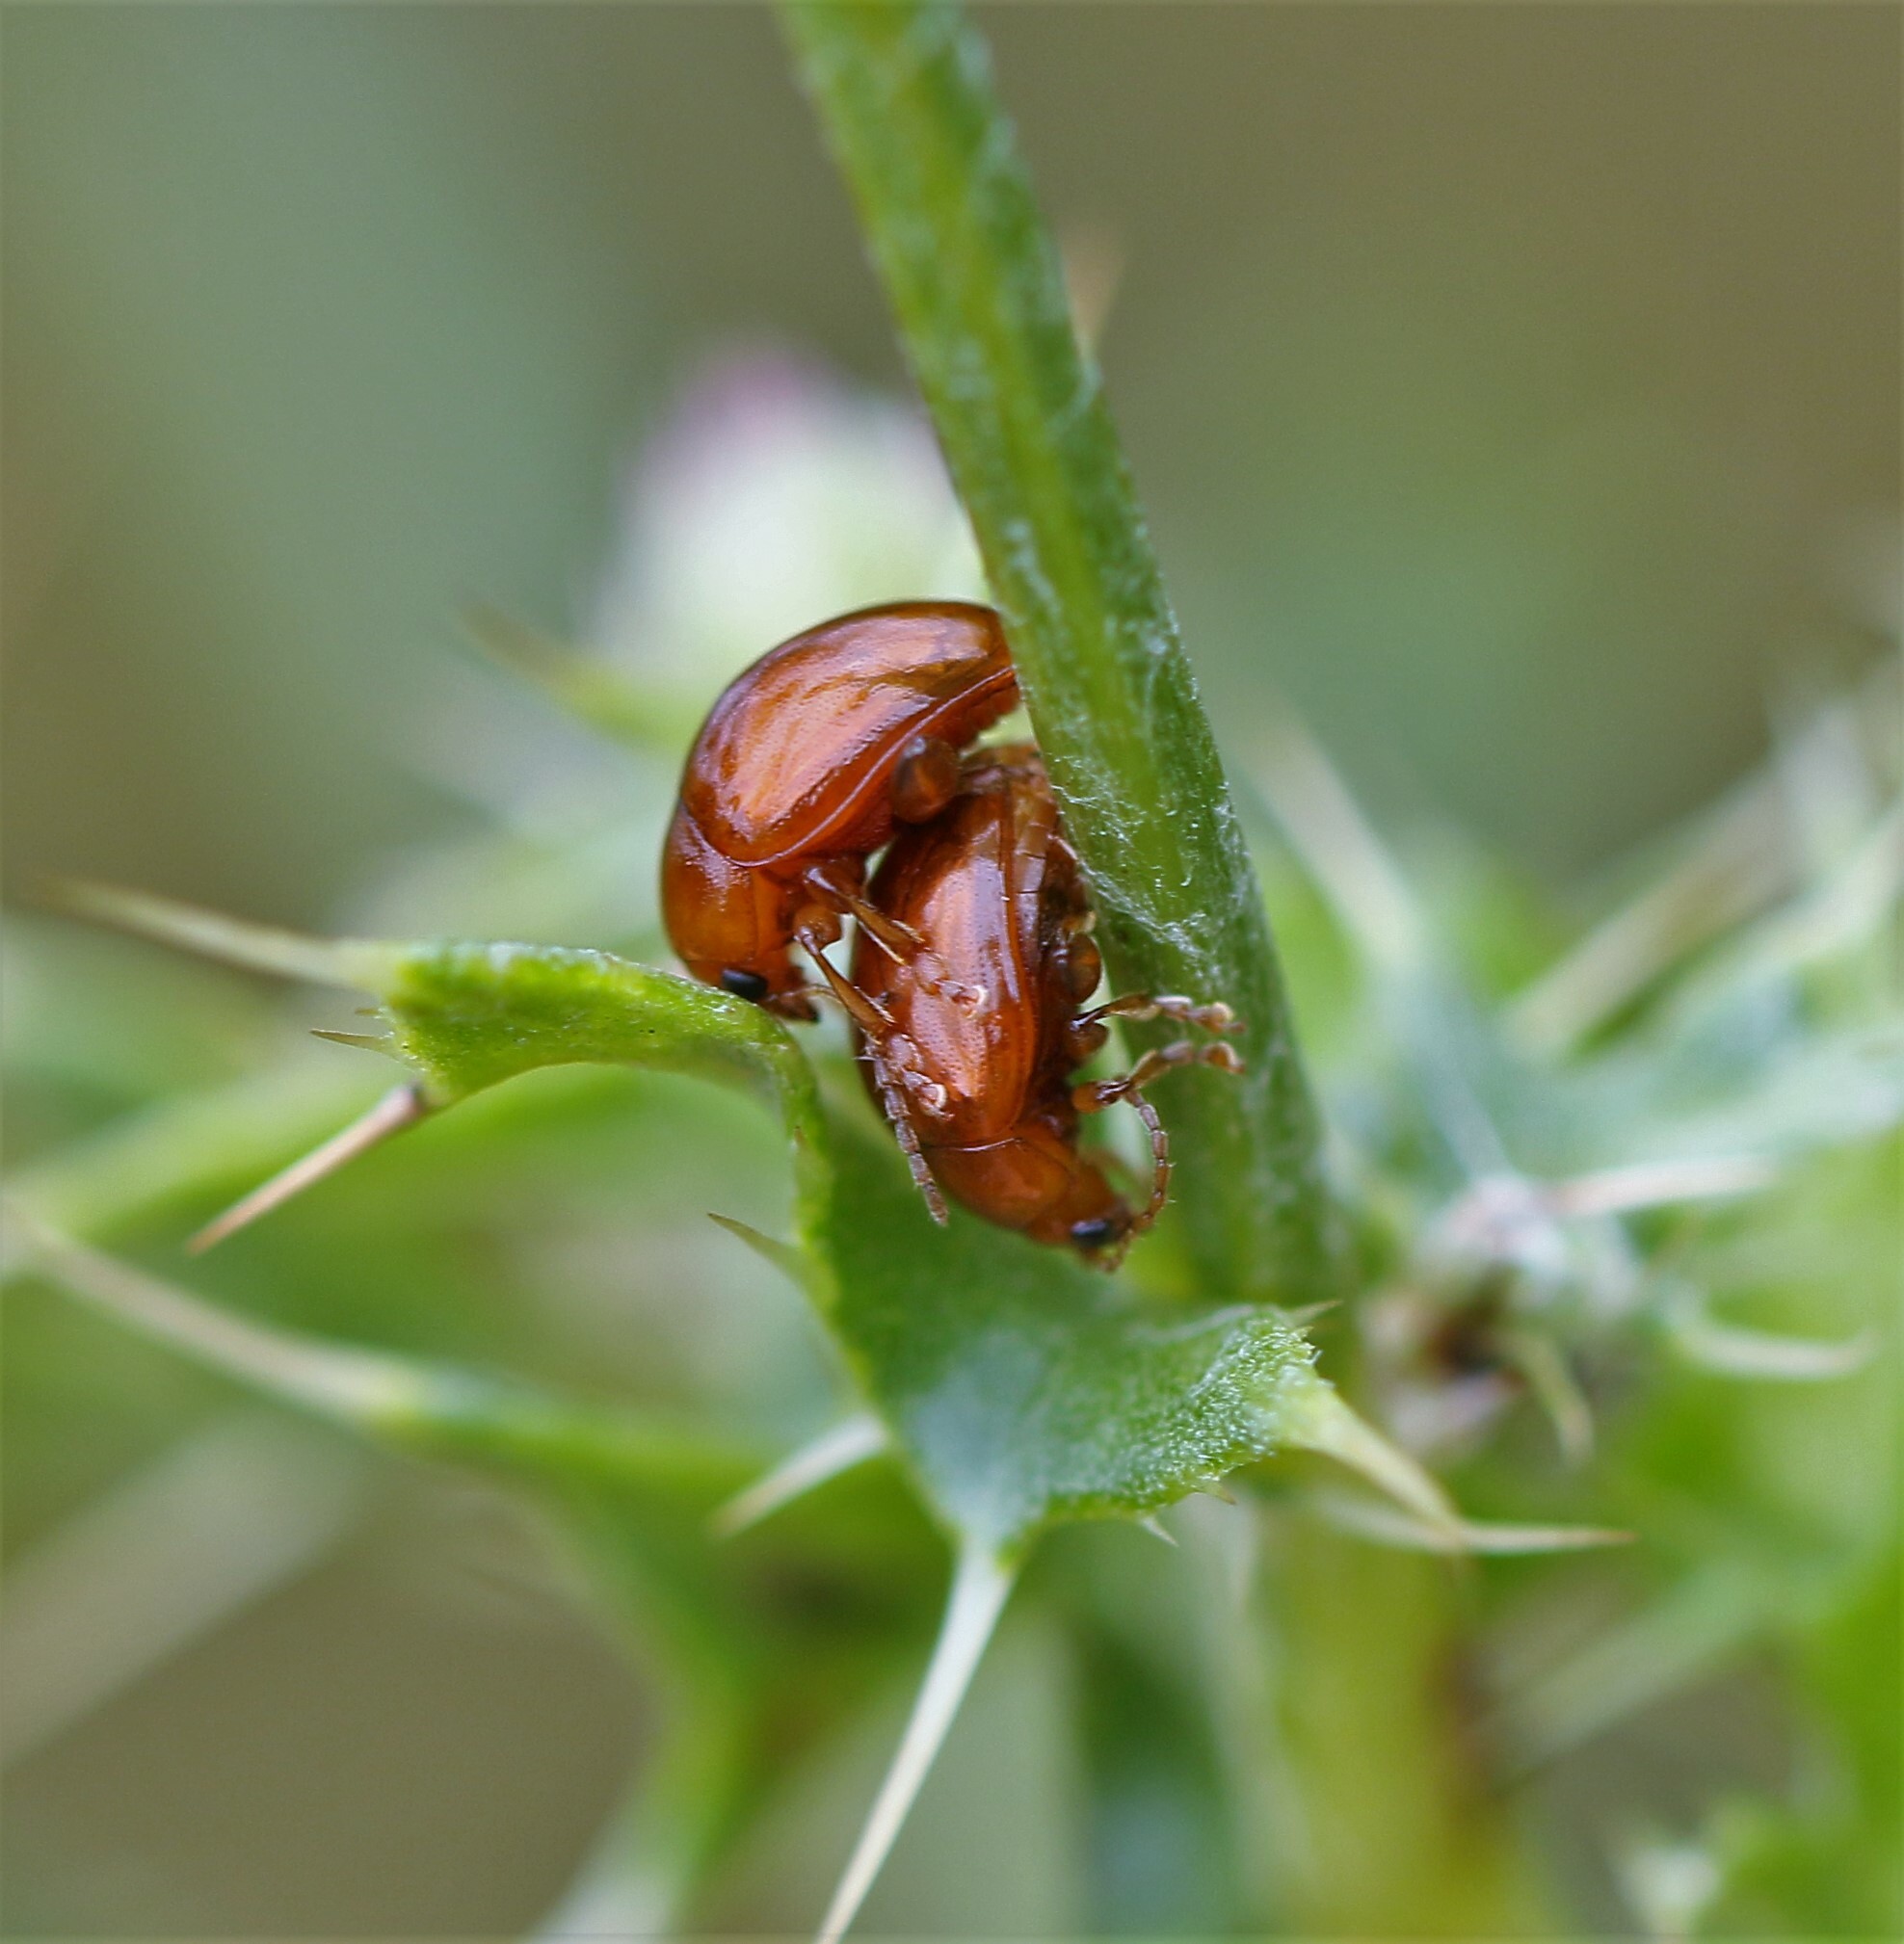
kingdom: Animalia
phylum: Arthropoda
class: Insecta
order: Coleoptera
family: Chrysomelidae
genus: Pistosia
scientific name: Pistosia testacea
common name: Leaf beetle
